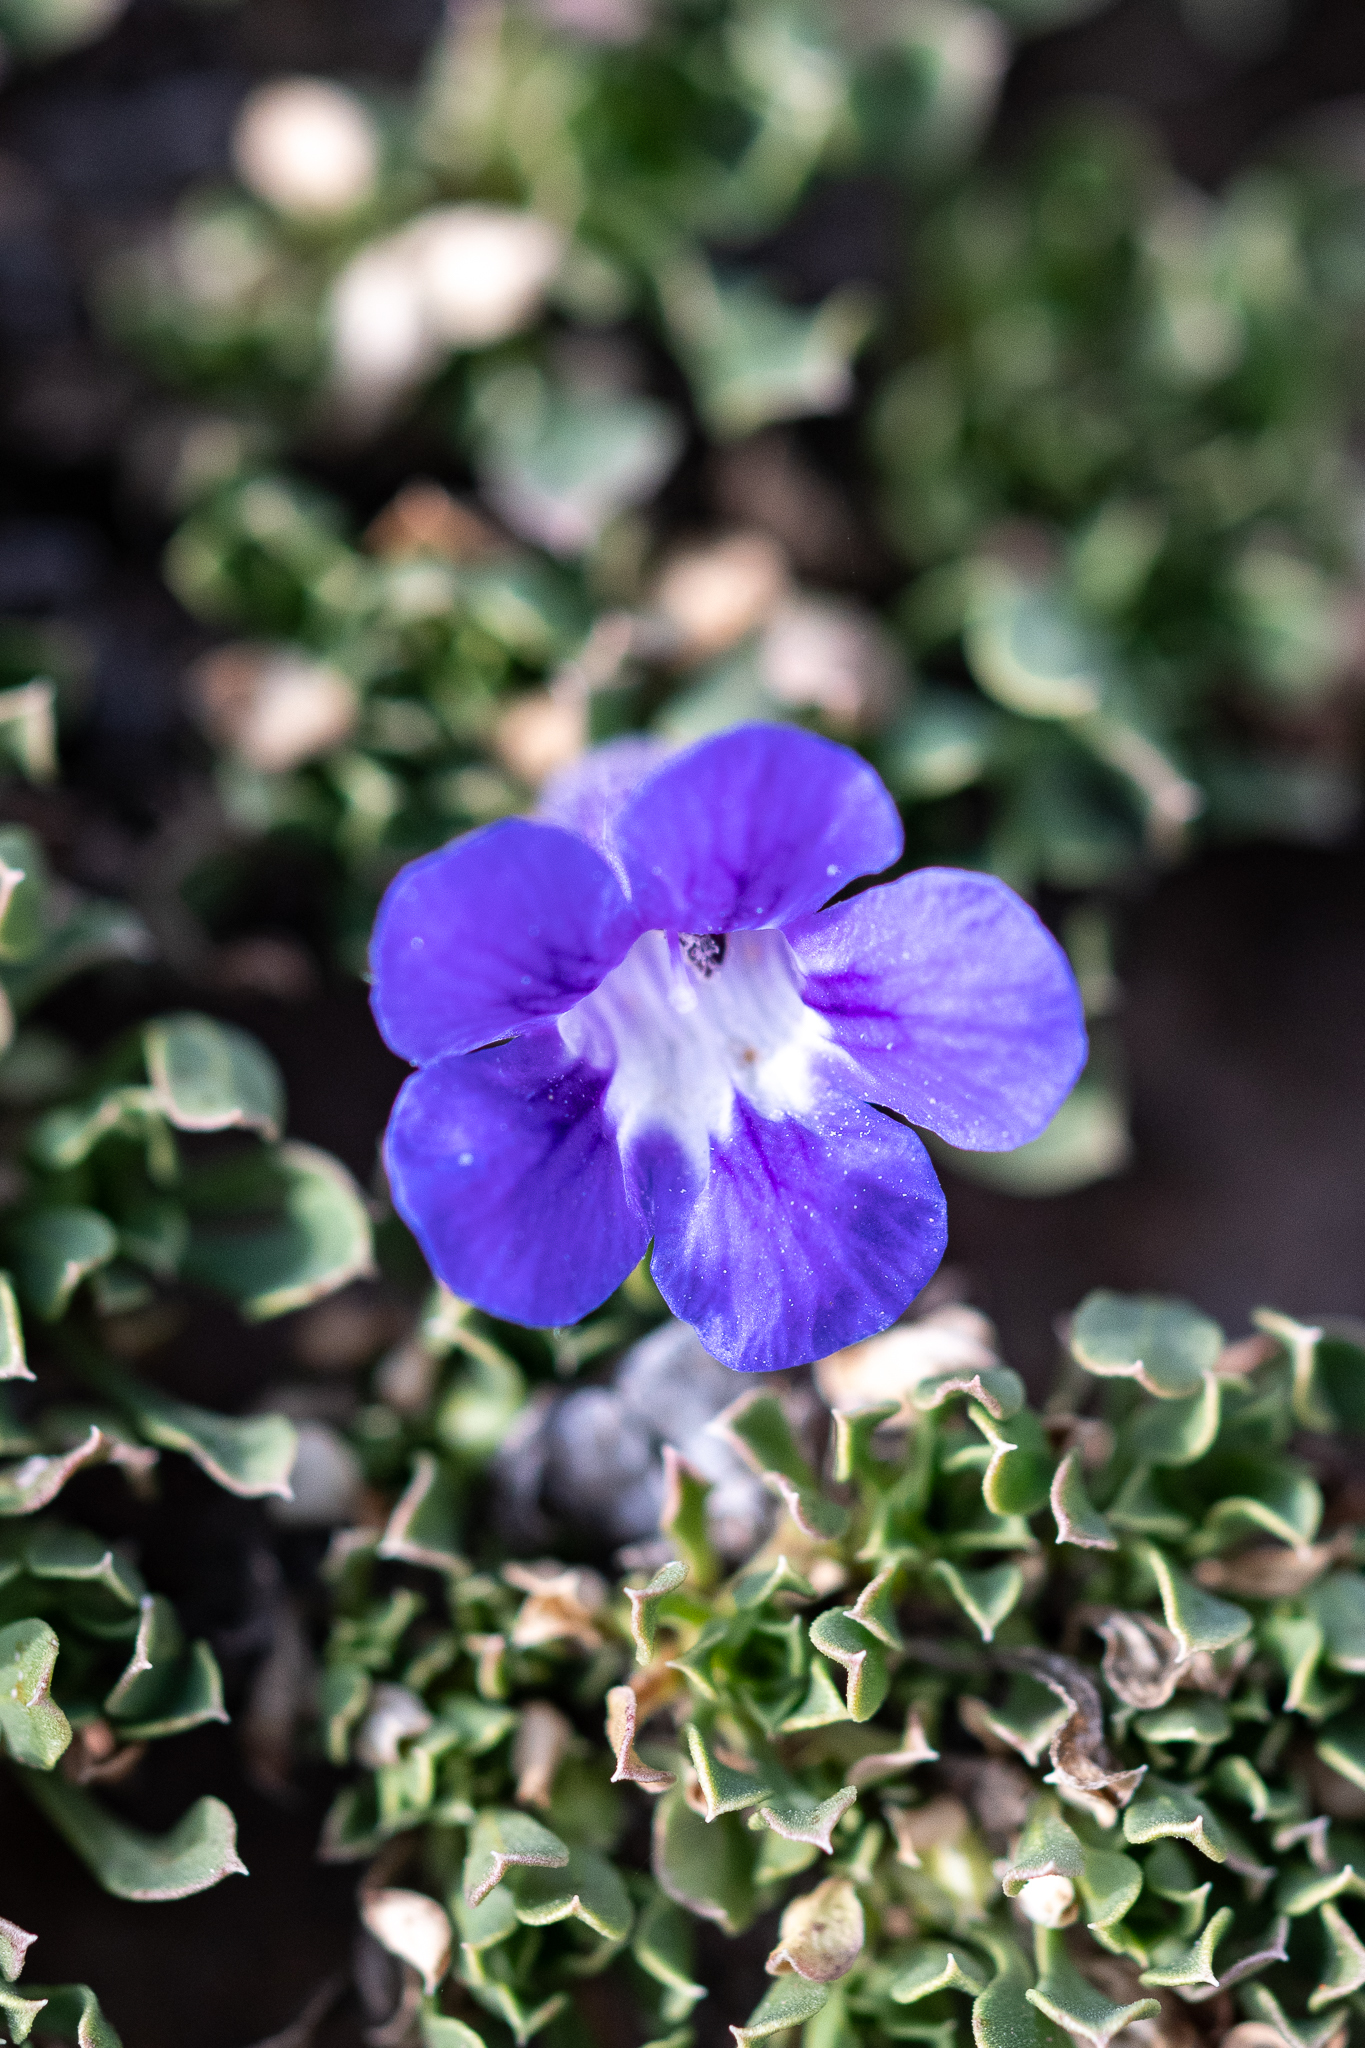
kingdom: Plantae
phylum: Tracheophyta
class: Magnoliopsida
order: Lamiales
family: Scrophulariaceae
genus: Aptosimum
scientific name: Aptosimum procumbens
